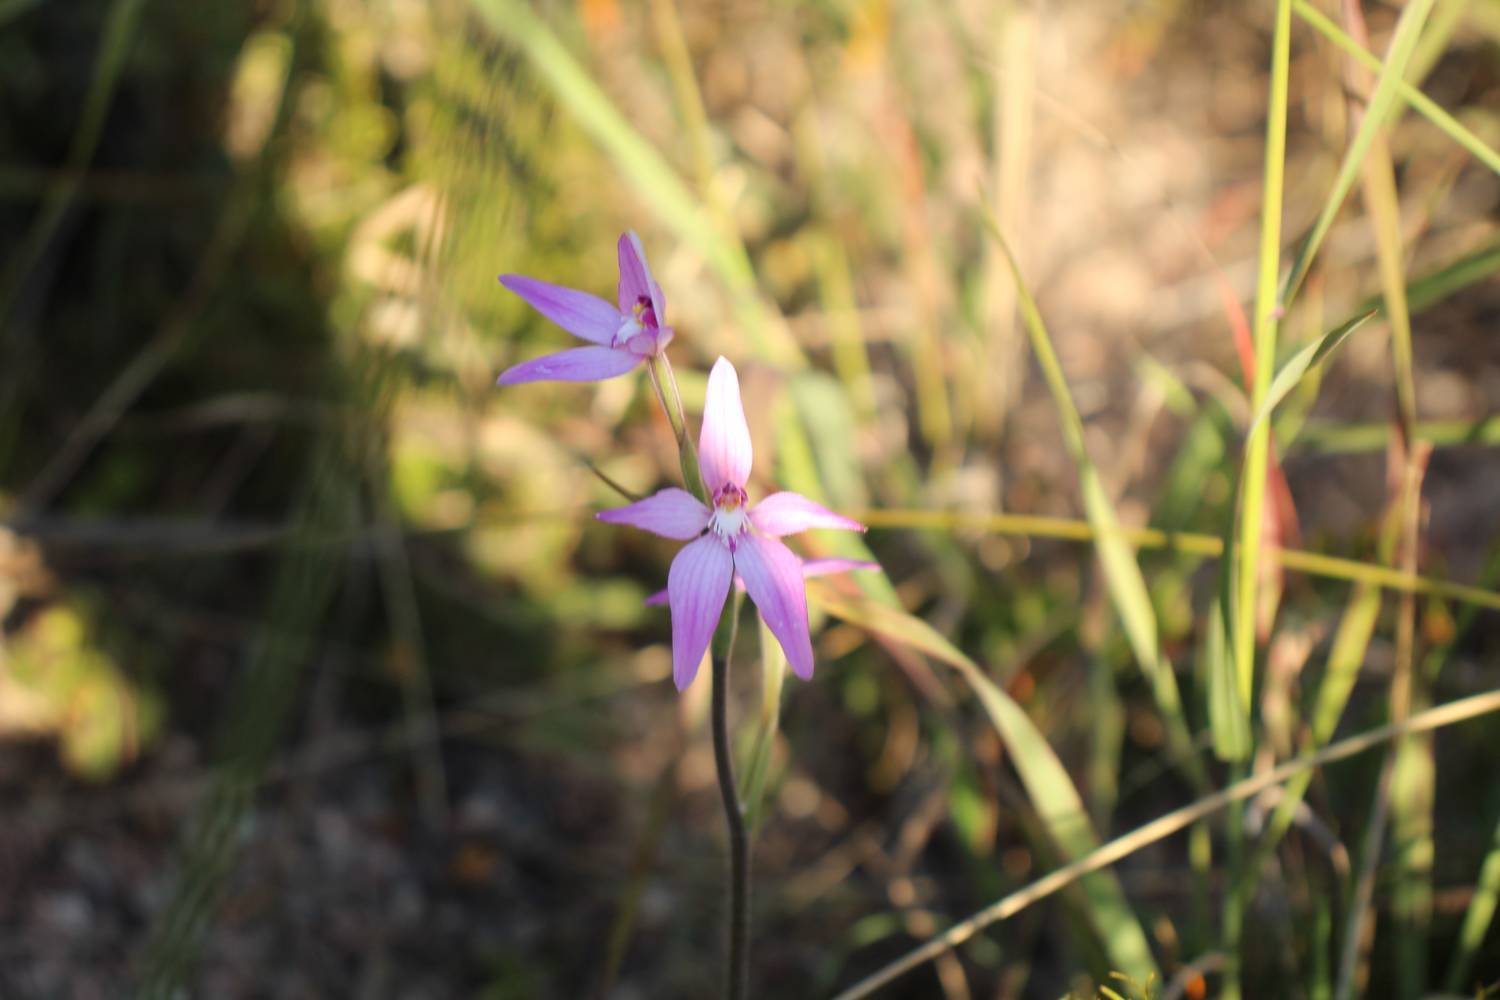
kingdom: Plantae
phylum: Tracheophyta
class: Liliopsida
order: Asparagales
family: Orchidaceae
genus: Caladenia
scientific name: Caladenia latifolia
